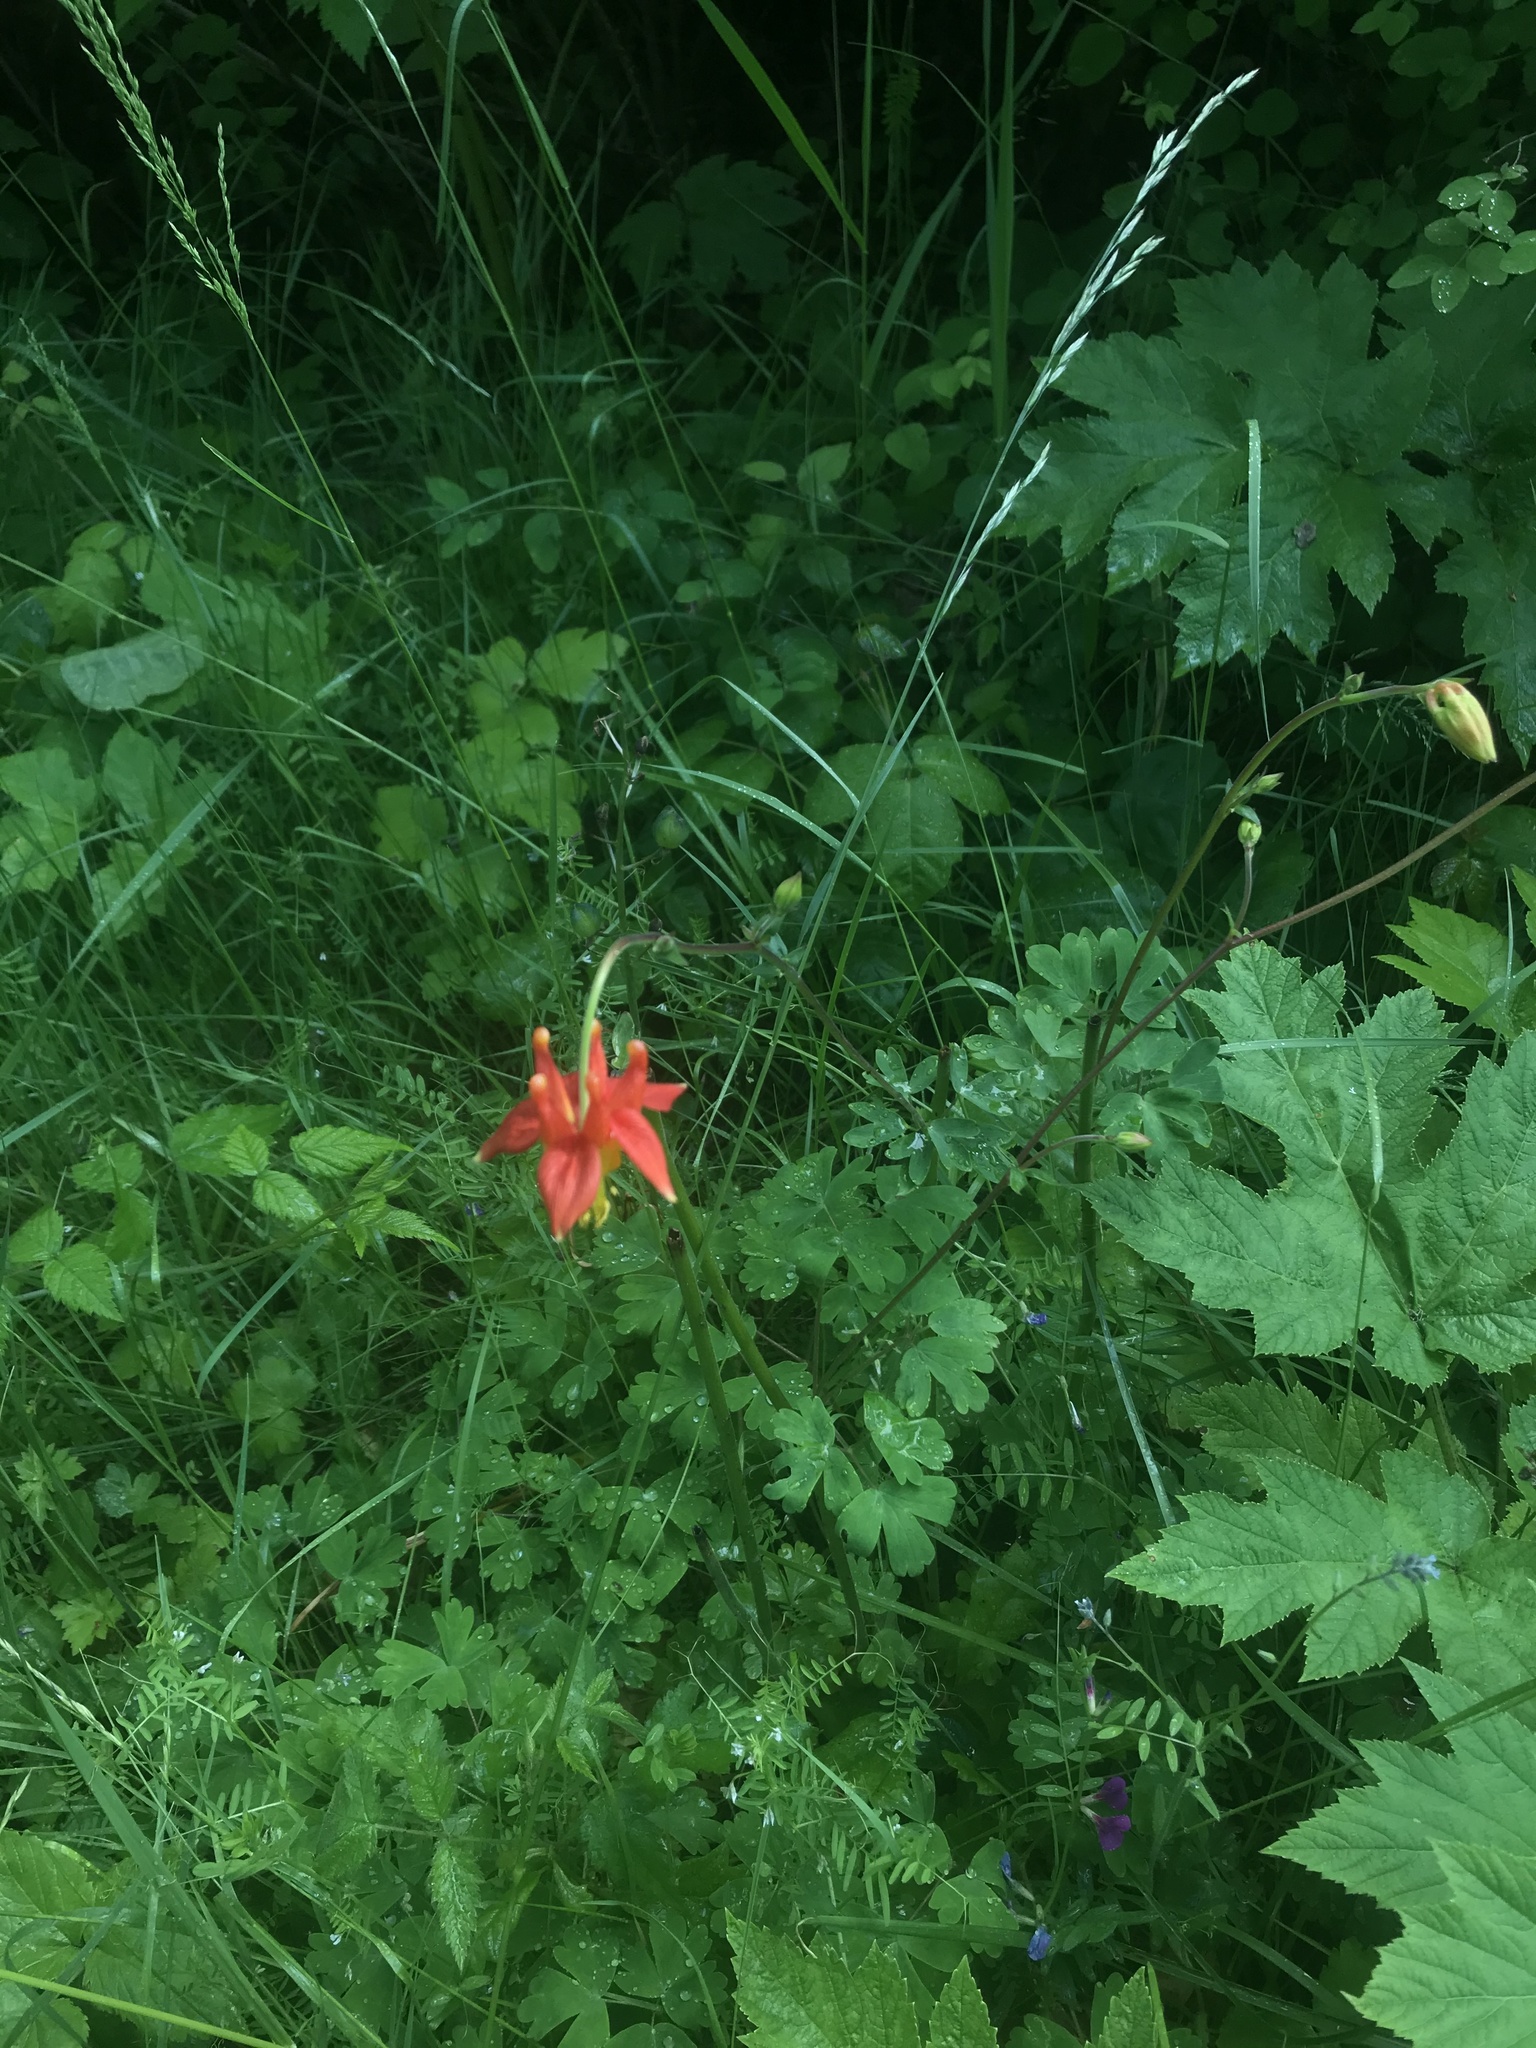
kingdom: Plantae
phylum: Tracheophyta
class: Magnoliopsida
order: Ranunculales
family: Ranunculaceae
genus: Aquilegia
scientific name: Aquilegia formosa
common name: Sitka columbine
